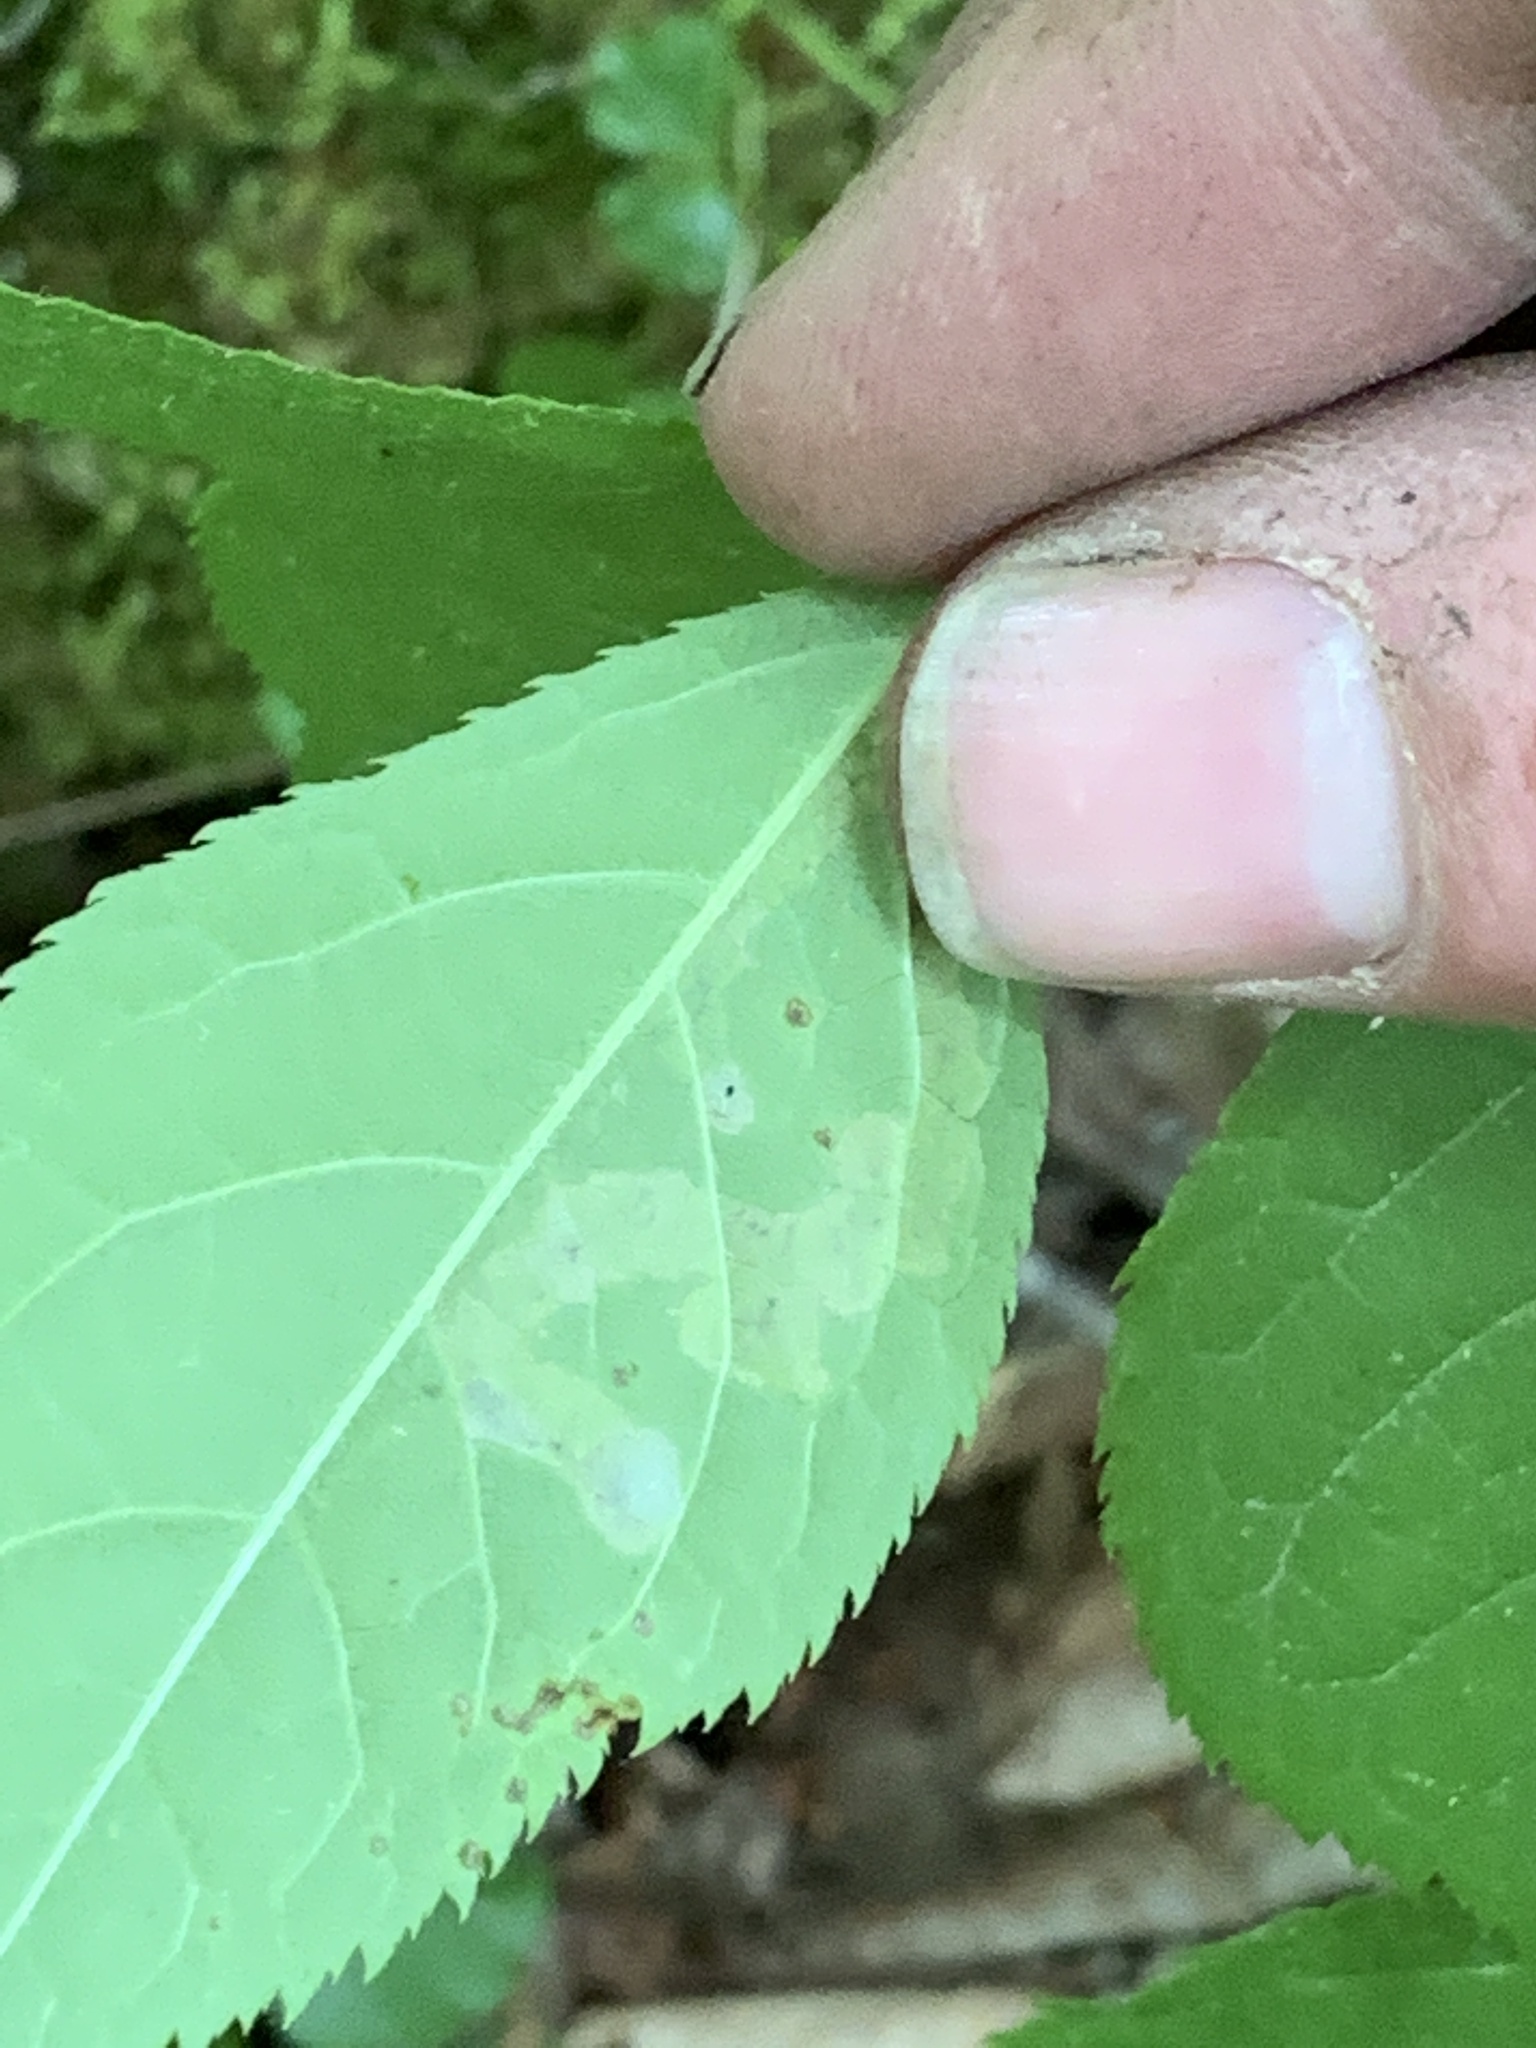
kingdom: Animalia
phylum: Arthropoda
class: Insecta
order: Diptera
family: Agromyzidae
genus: Phytomyza
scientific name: Phytomyza aralivora
